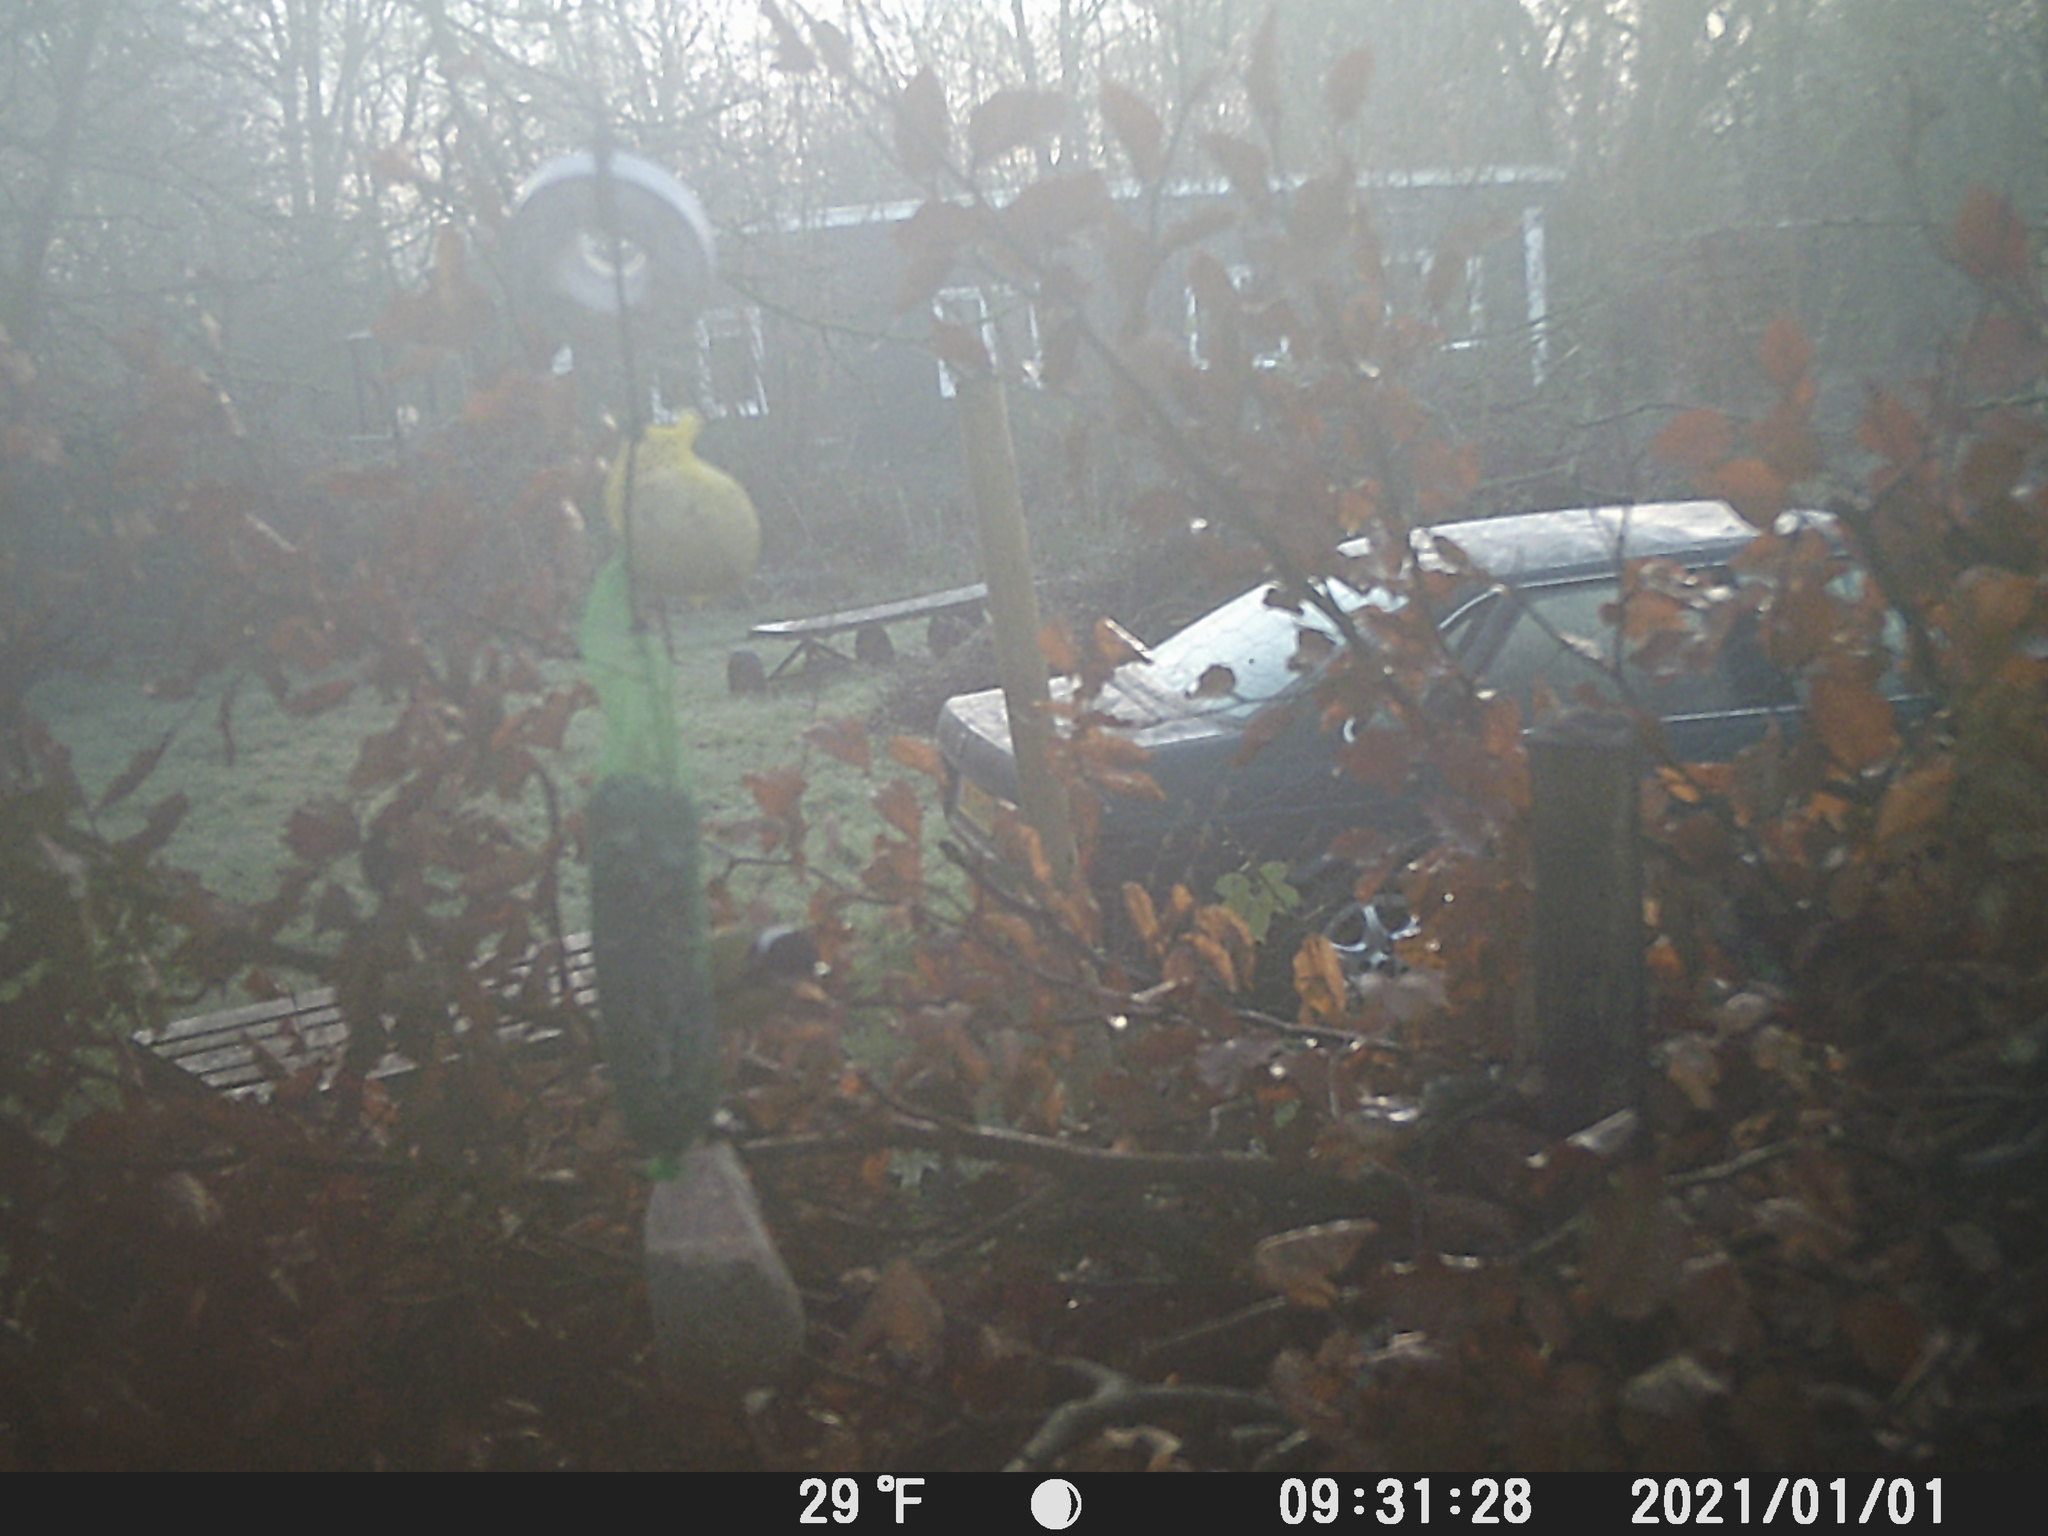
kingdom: Animalia
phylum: Chordata
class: Aves
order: Passeriformes
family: Paridae
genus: Parus
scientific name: Parus major
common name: Great tit
